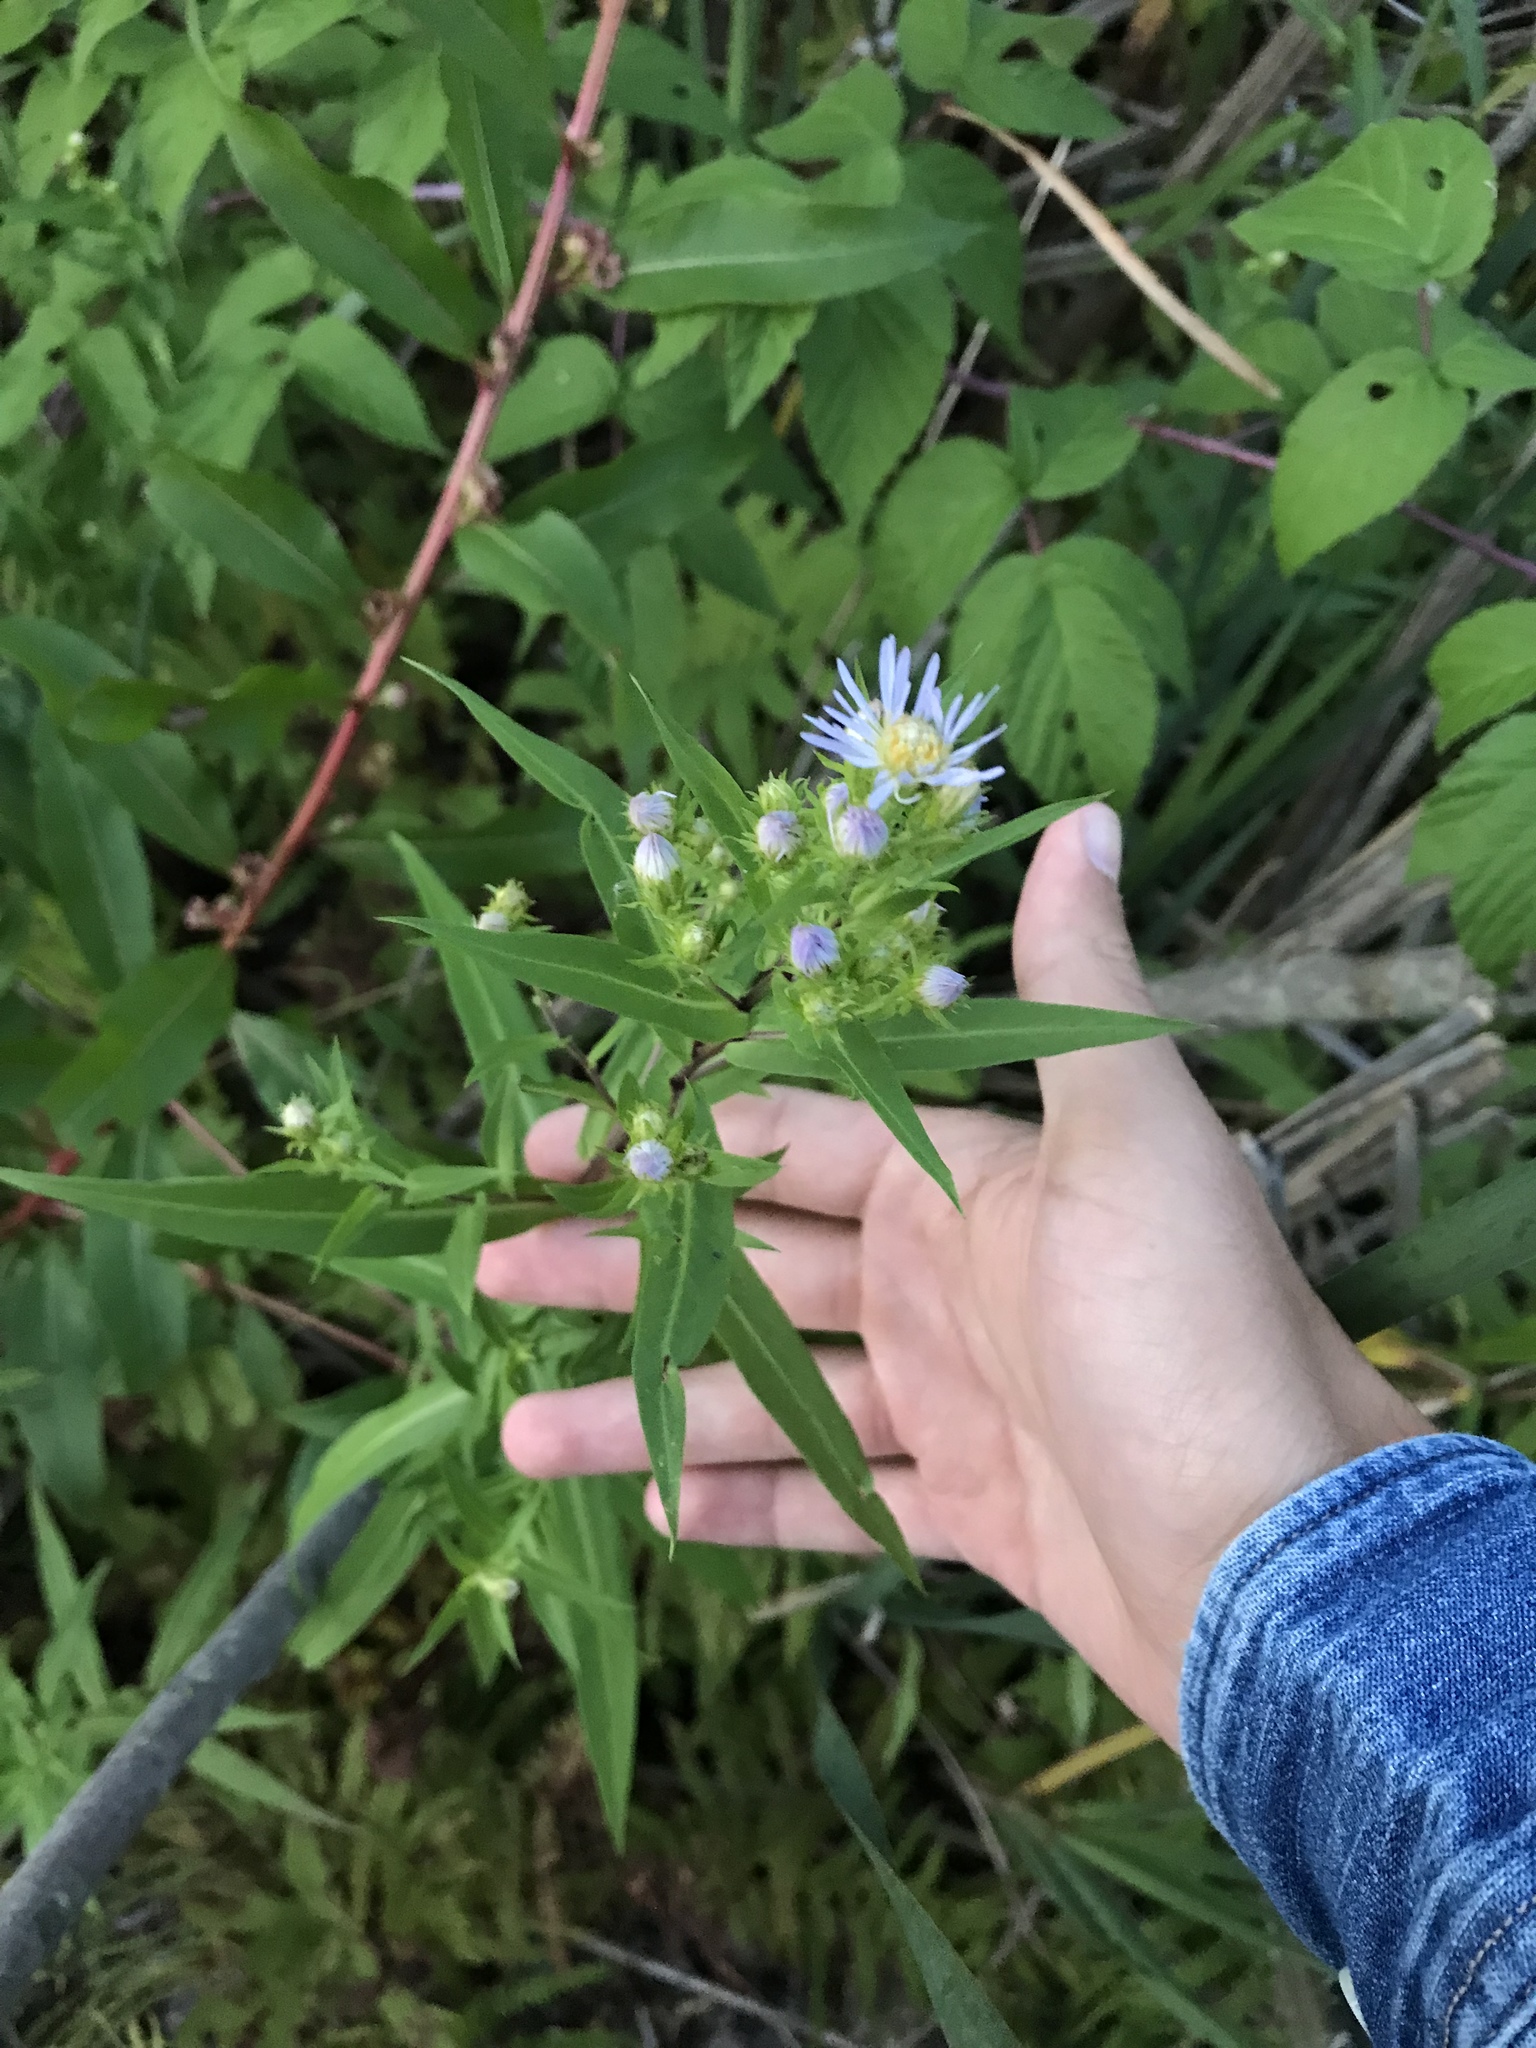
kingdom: Plantae
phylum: Tracheophyta
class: Magnoliopsida
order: Asterales
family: Asteraceae
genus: Symphyotrichum
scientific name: Symphyotrichum puniceum
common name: Bog aster
